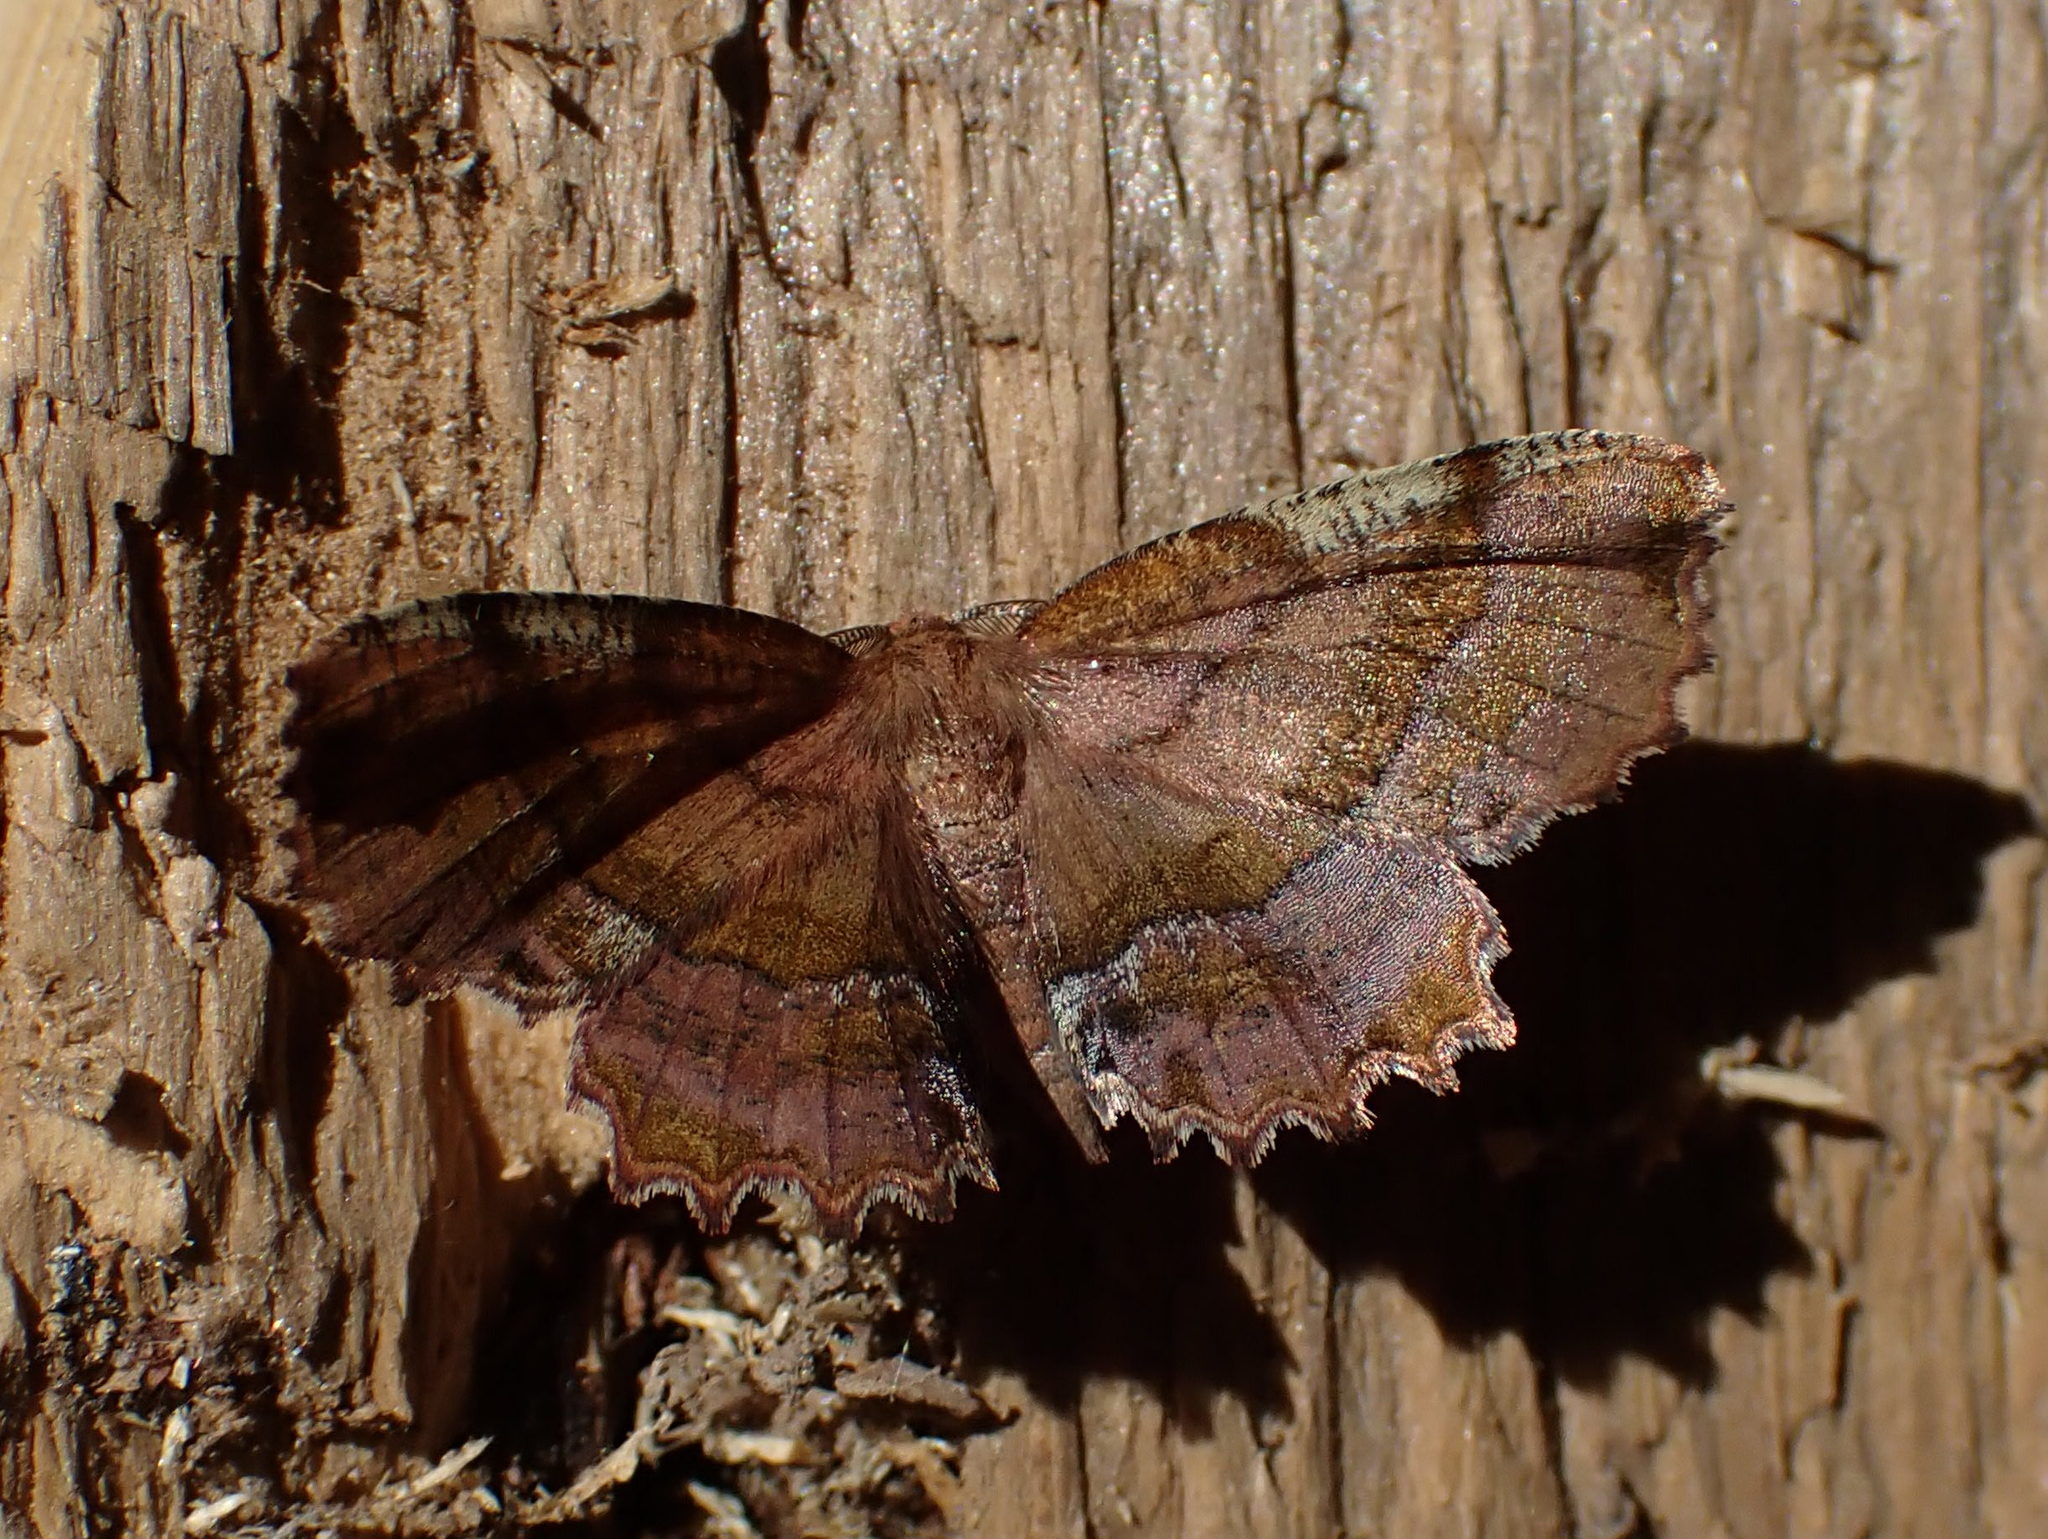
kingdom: Animalia
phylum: Arthropoda
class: Insecta
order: Lepidoptera
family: Geometridae
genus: Cepphis
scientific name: Cepphis armataria
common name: Scallop moth
